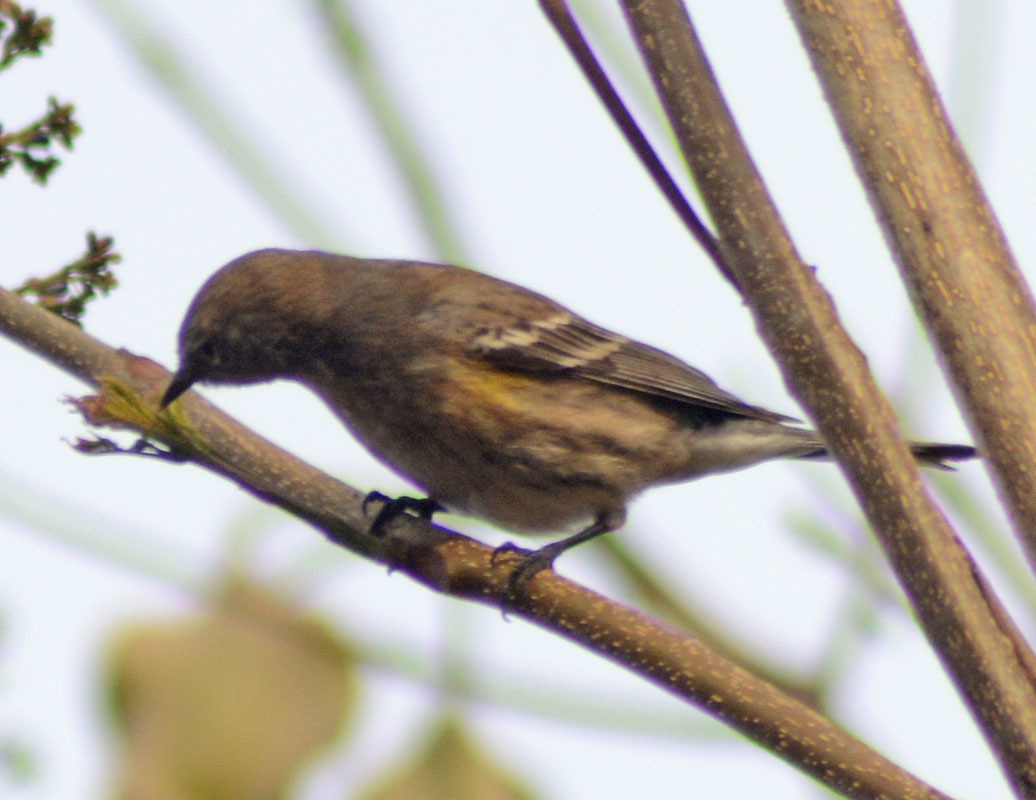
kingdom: Animalia
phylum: Chordata
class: Aves
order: Passeriformes
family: Parulidae
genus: Setophaga
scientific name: Setophaga coronata
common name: Myrtle warbler
